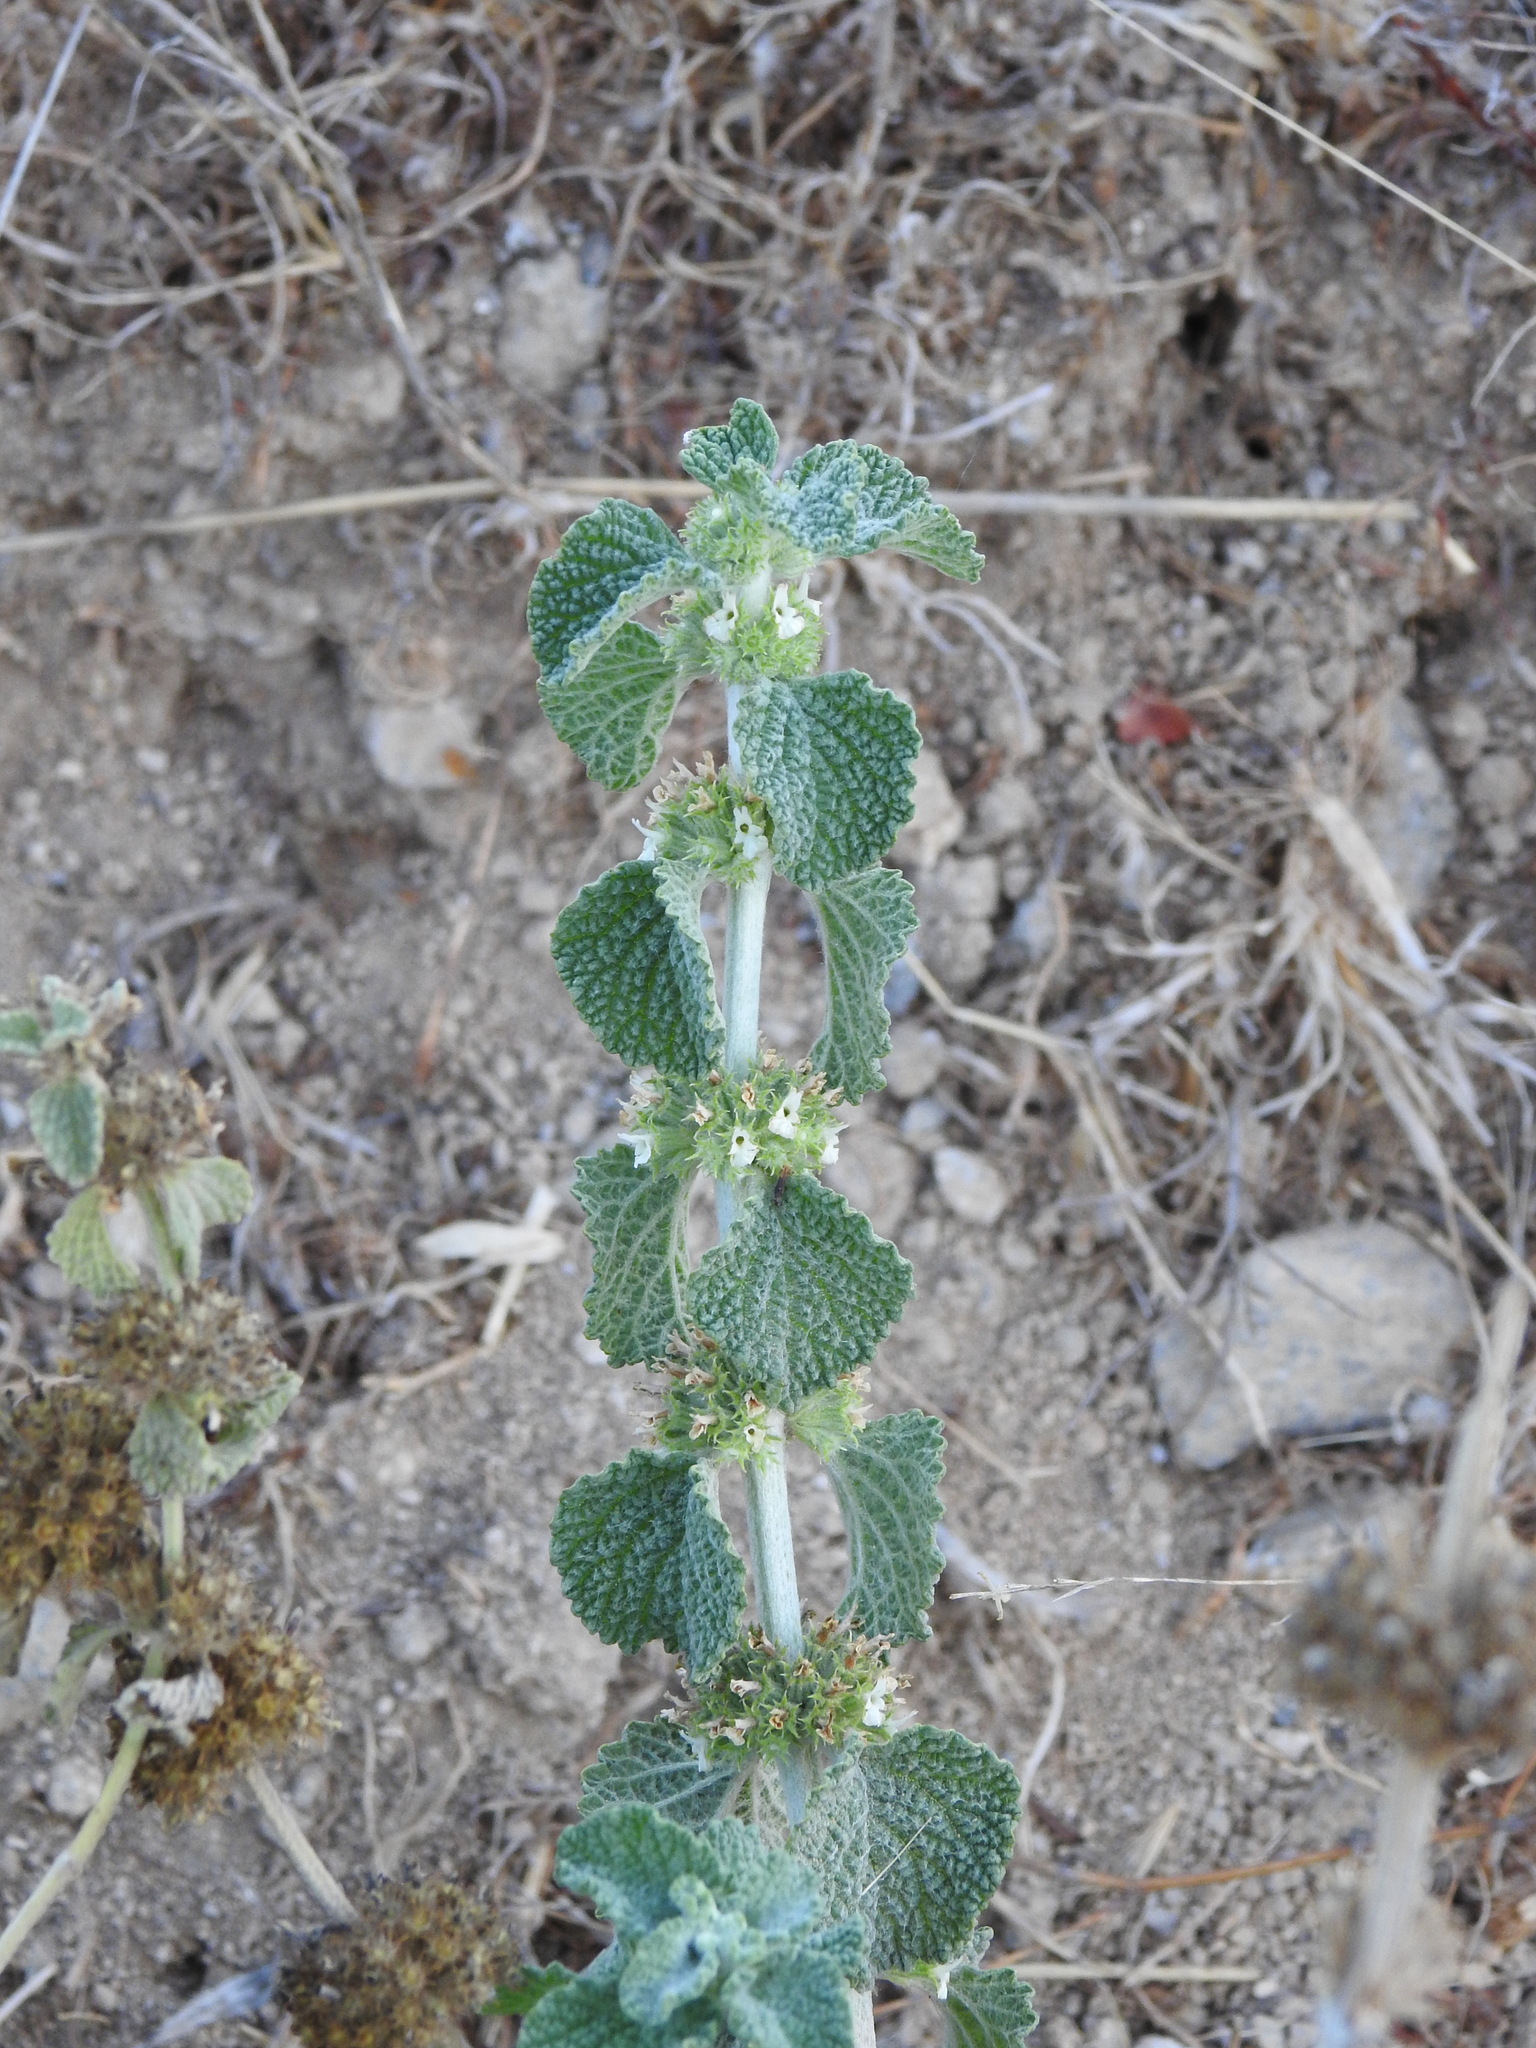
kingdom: Plantae
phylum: Tracheophyta
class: Magnoliopsida
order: Lamiales
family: Lamiaceae
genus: Marrubium
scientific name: Marrubium vulgare
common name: Horehound
